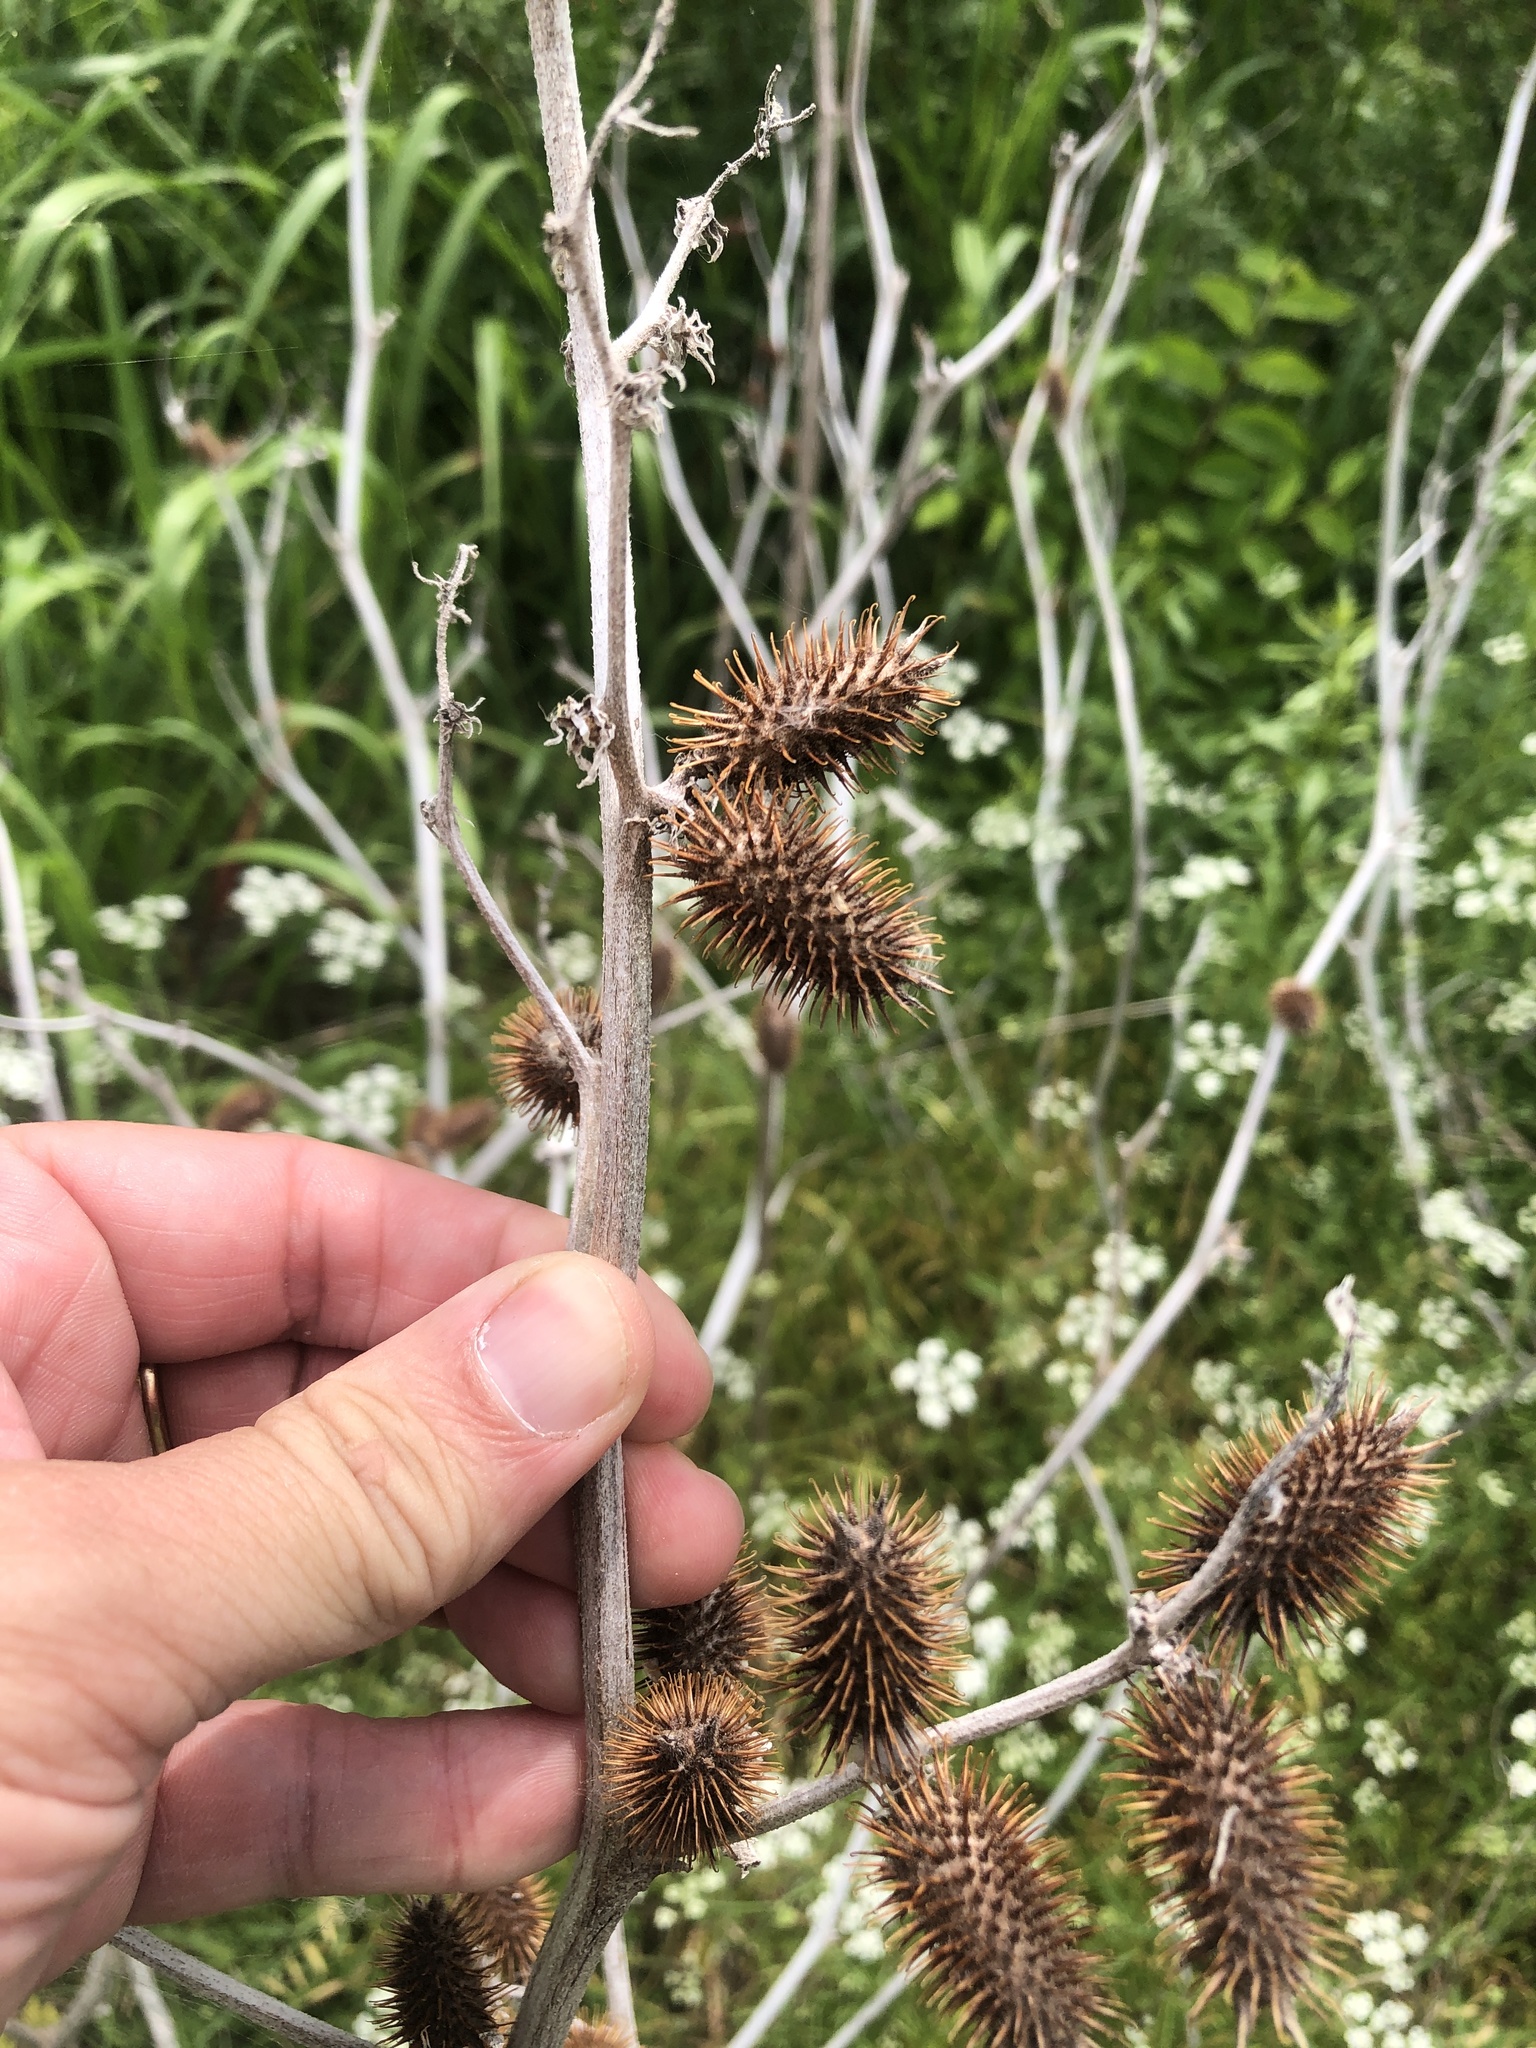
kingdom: Plantae
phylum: Tracheophyta
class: Magnoliopsida
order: Asterales
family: Asteraceae
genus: Xanthium
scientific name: Xanthium strumarium
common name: Rough cocklebur
